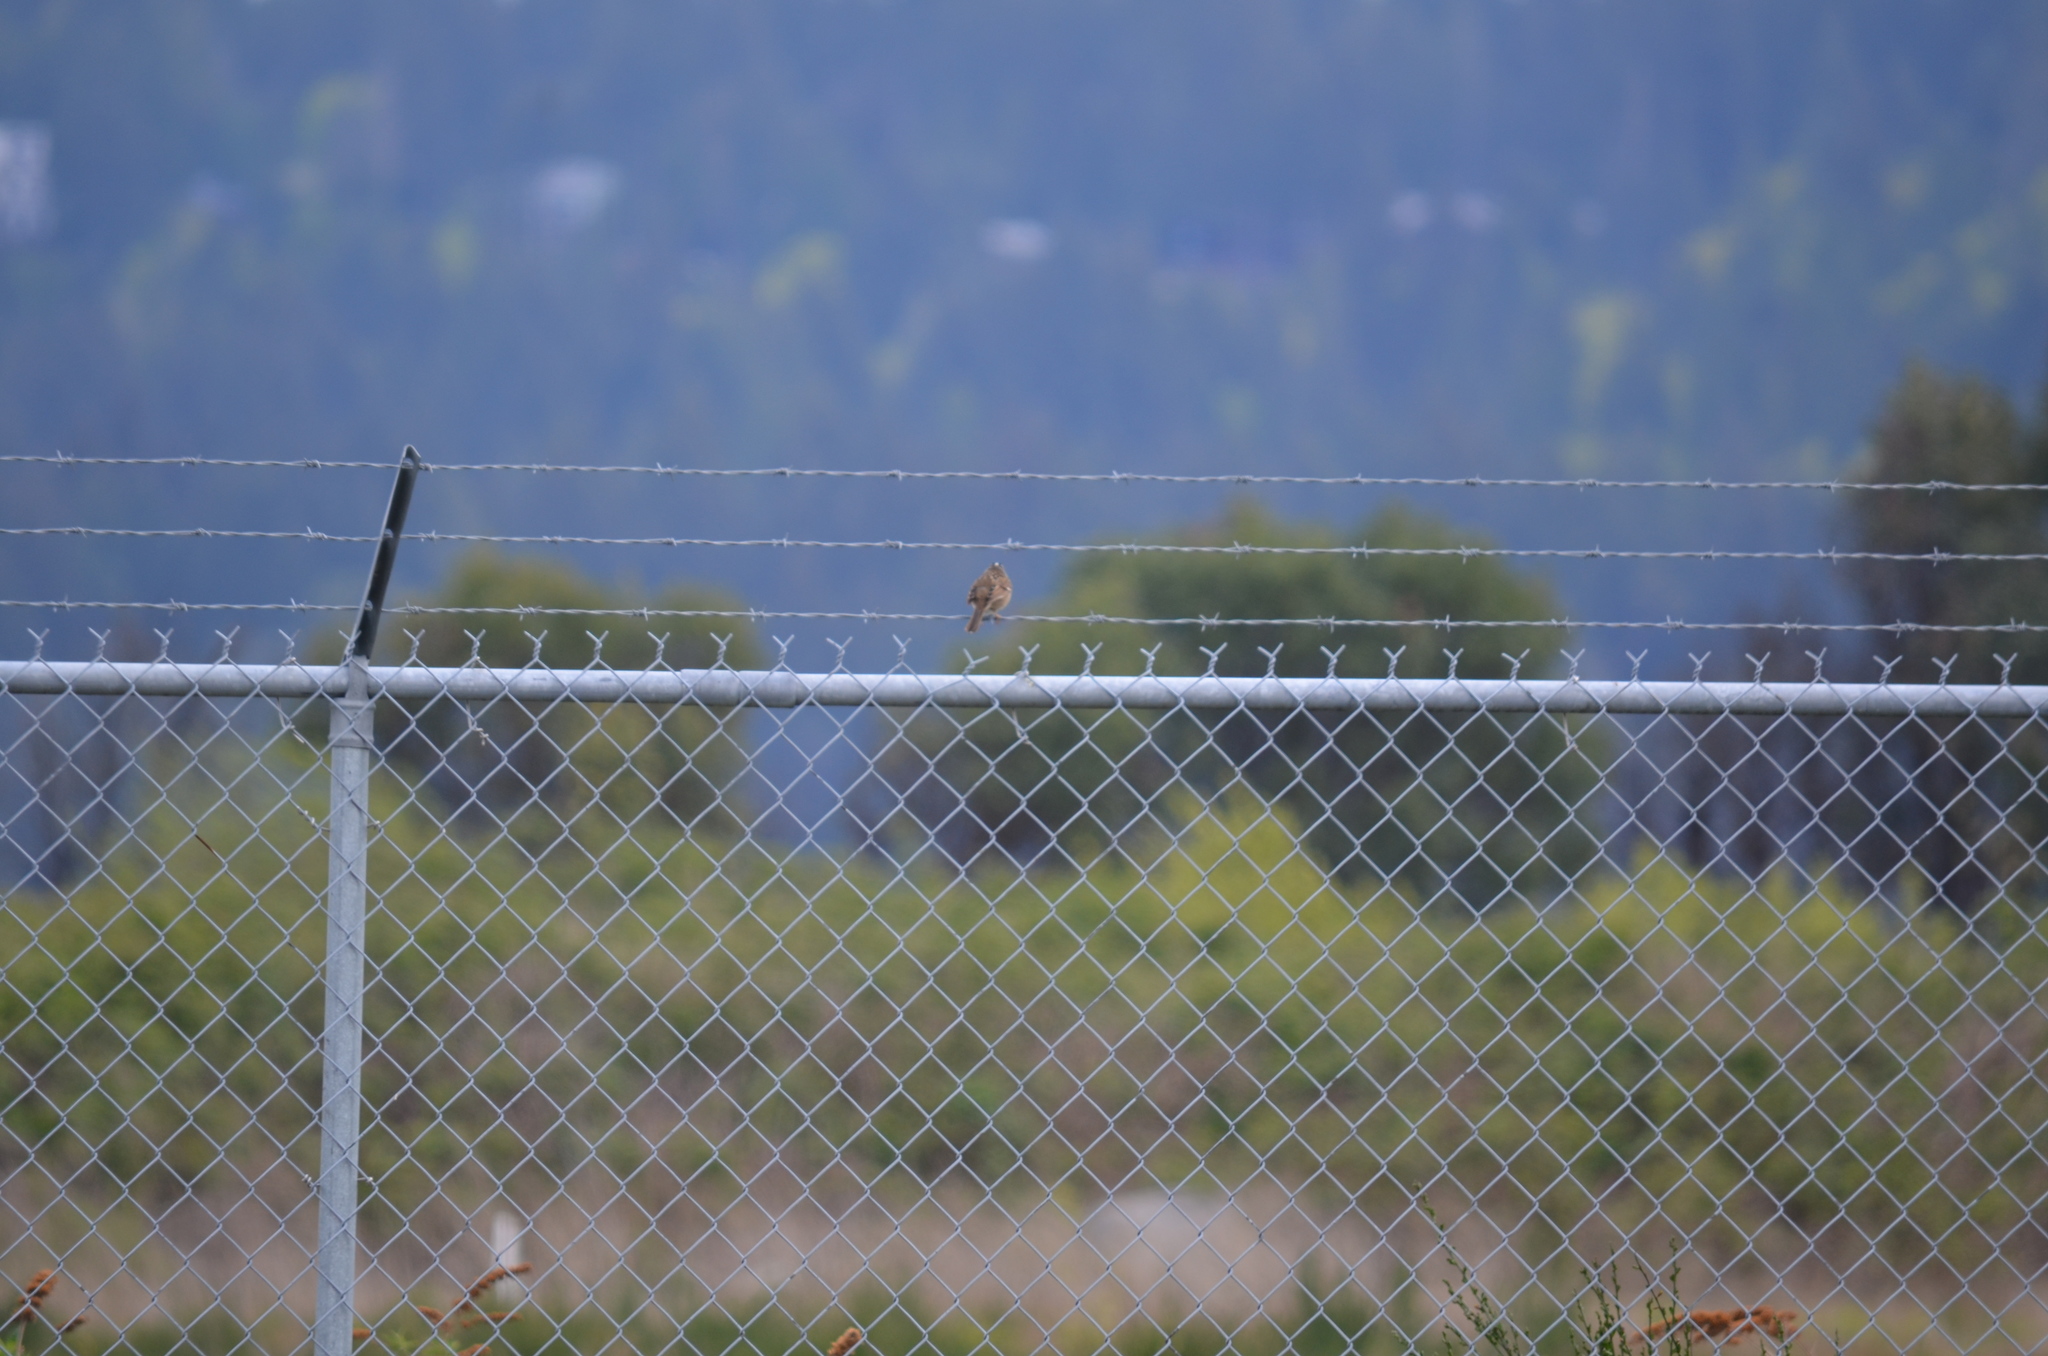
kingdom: Animalia
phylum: Chordata
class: Aves
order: Passeriformes
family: Passerellidae
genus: Zonotrichia
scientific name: Zonotrichia leucophrys
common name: White-crowned sparrow
